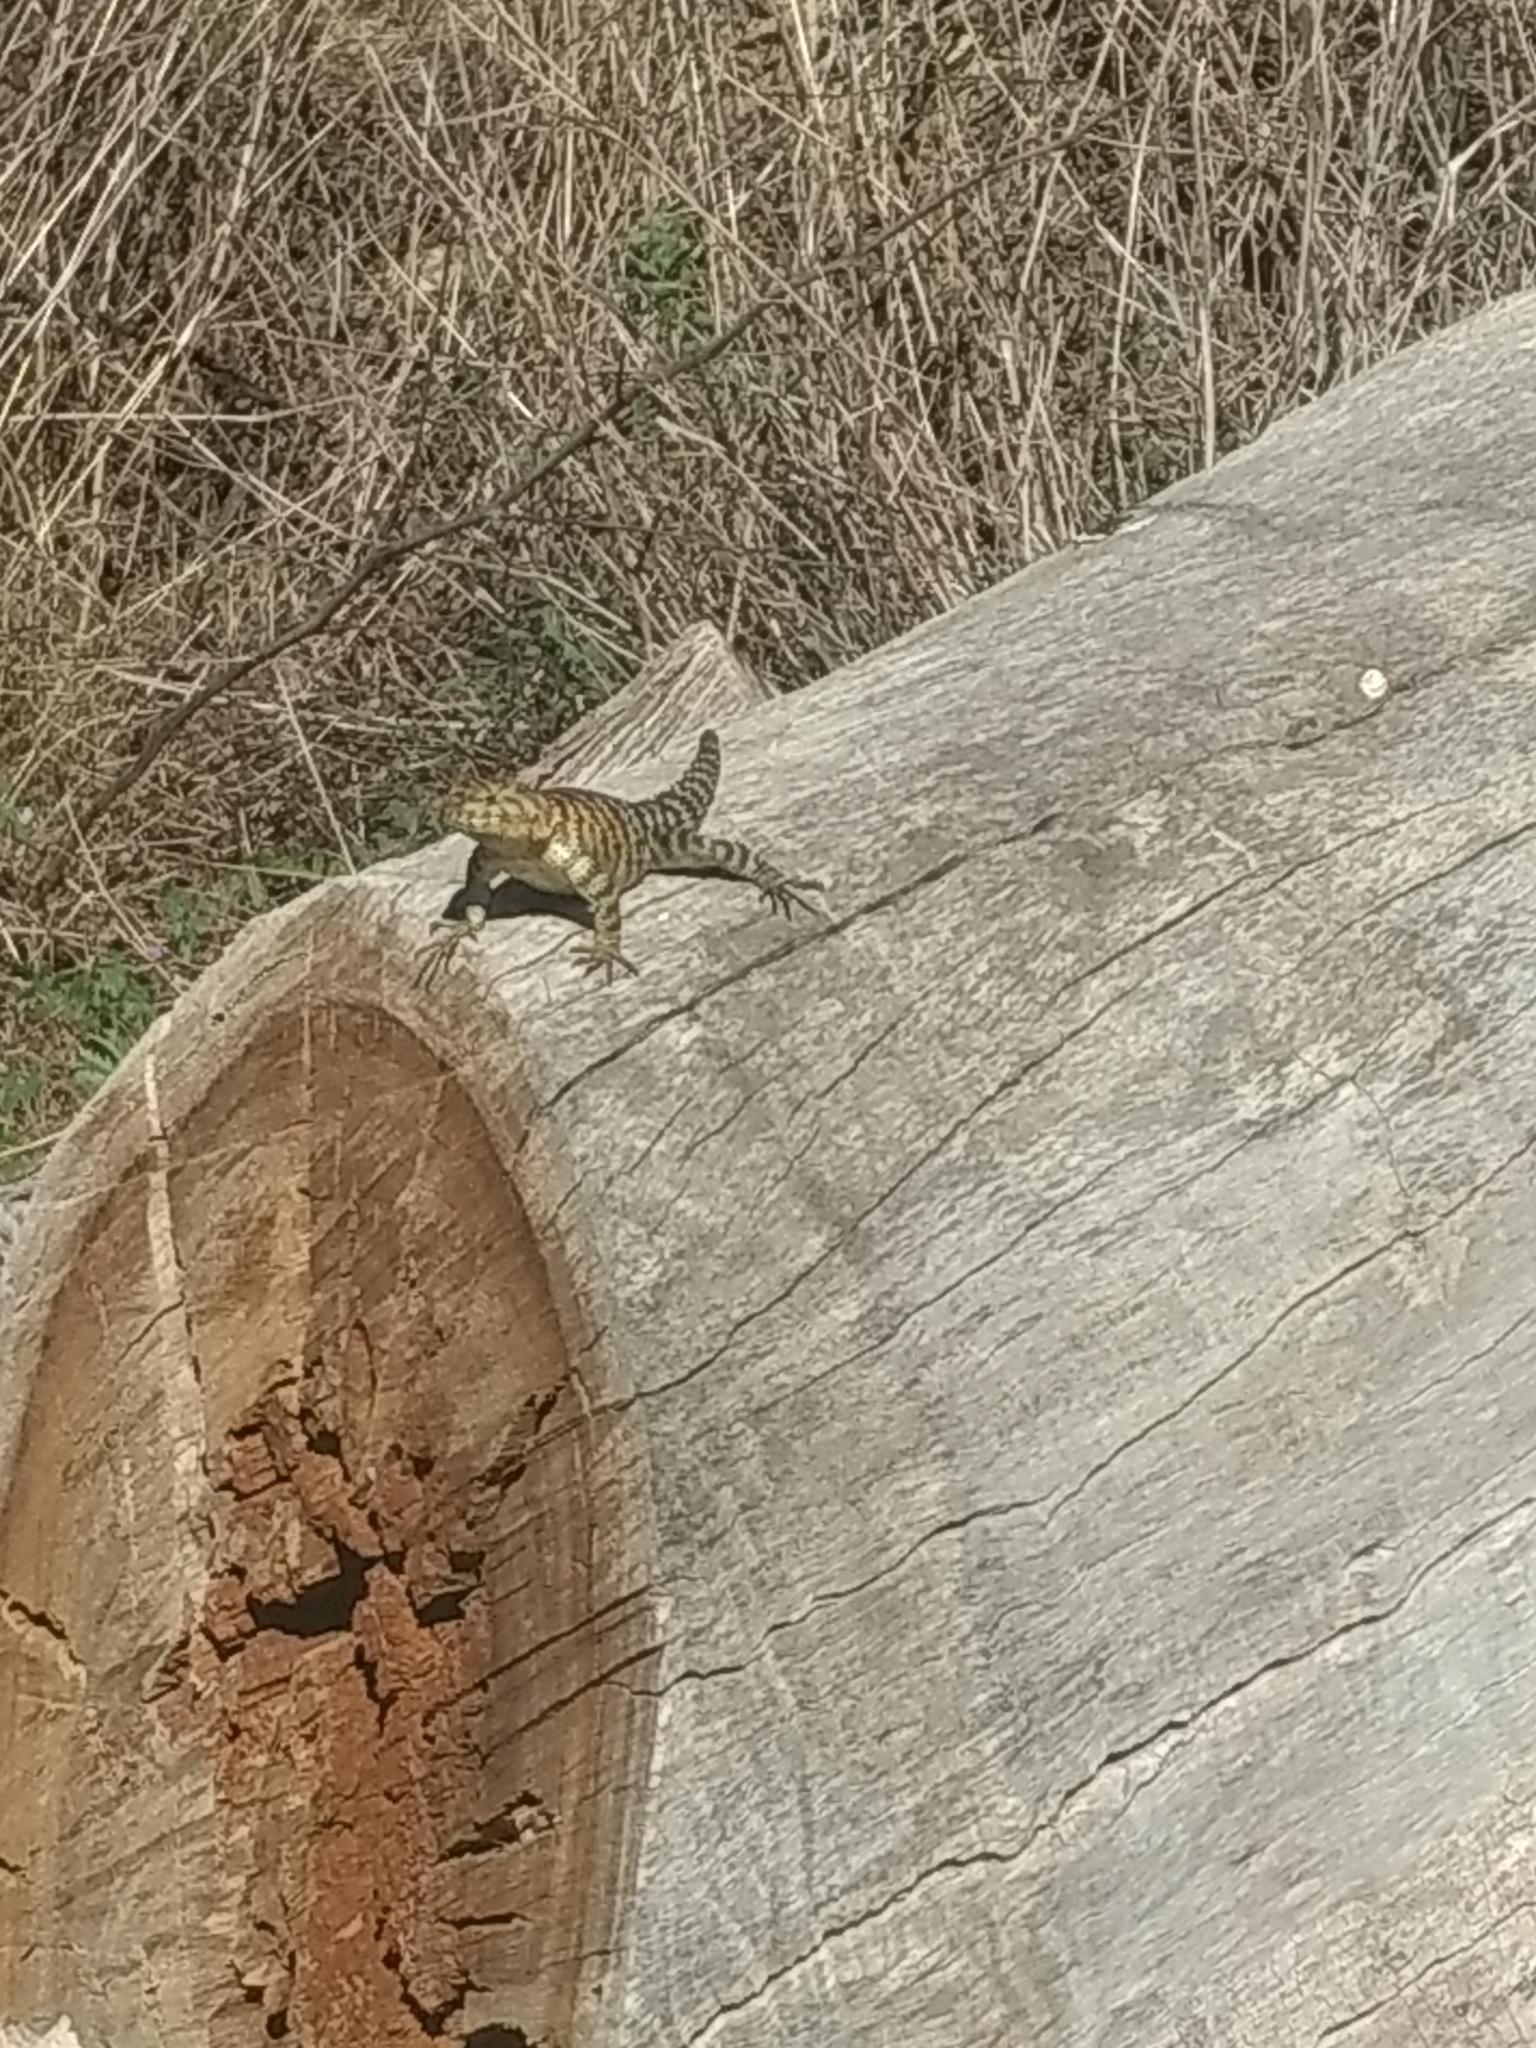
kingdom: Animalia
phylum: Chordata
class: Squamata
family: Phrynosomatidae
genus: Sceloporus
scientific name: Sceloporus orcutti
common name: Granite spiny lizard
